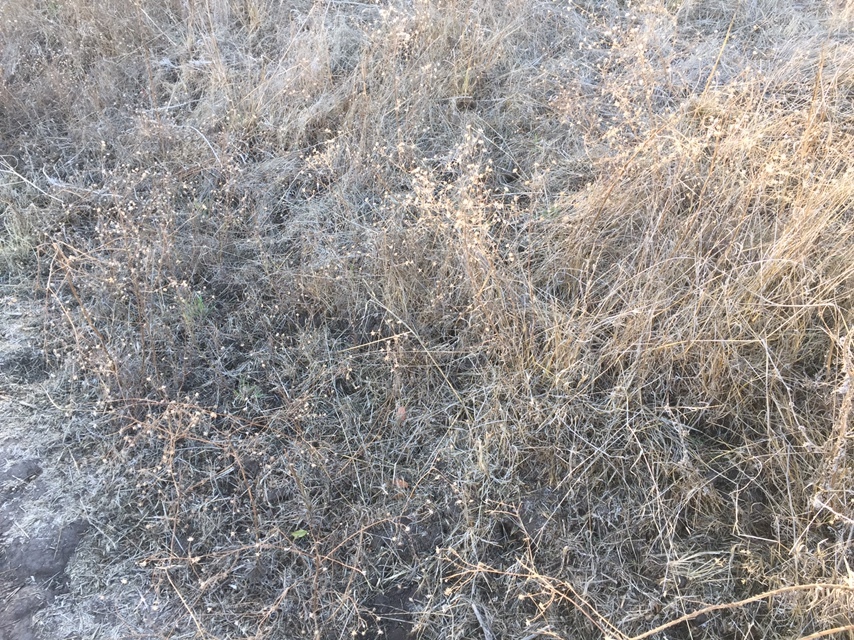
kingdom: Plantae
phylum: Tracheophyta
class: Magnoliopsida
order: Asterales
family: Asteraceae
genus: Madia
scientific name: Madia elegans
